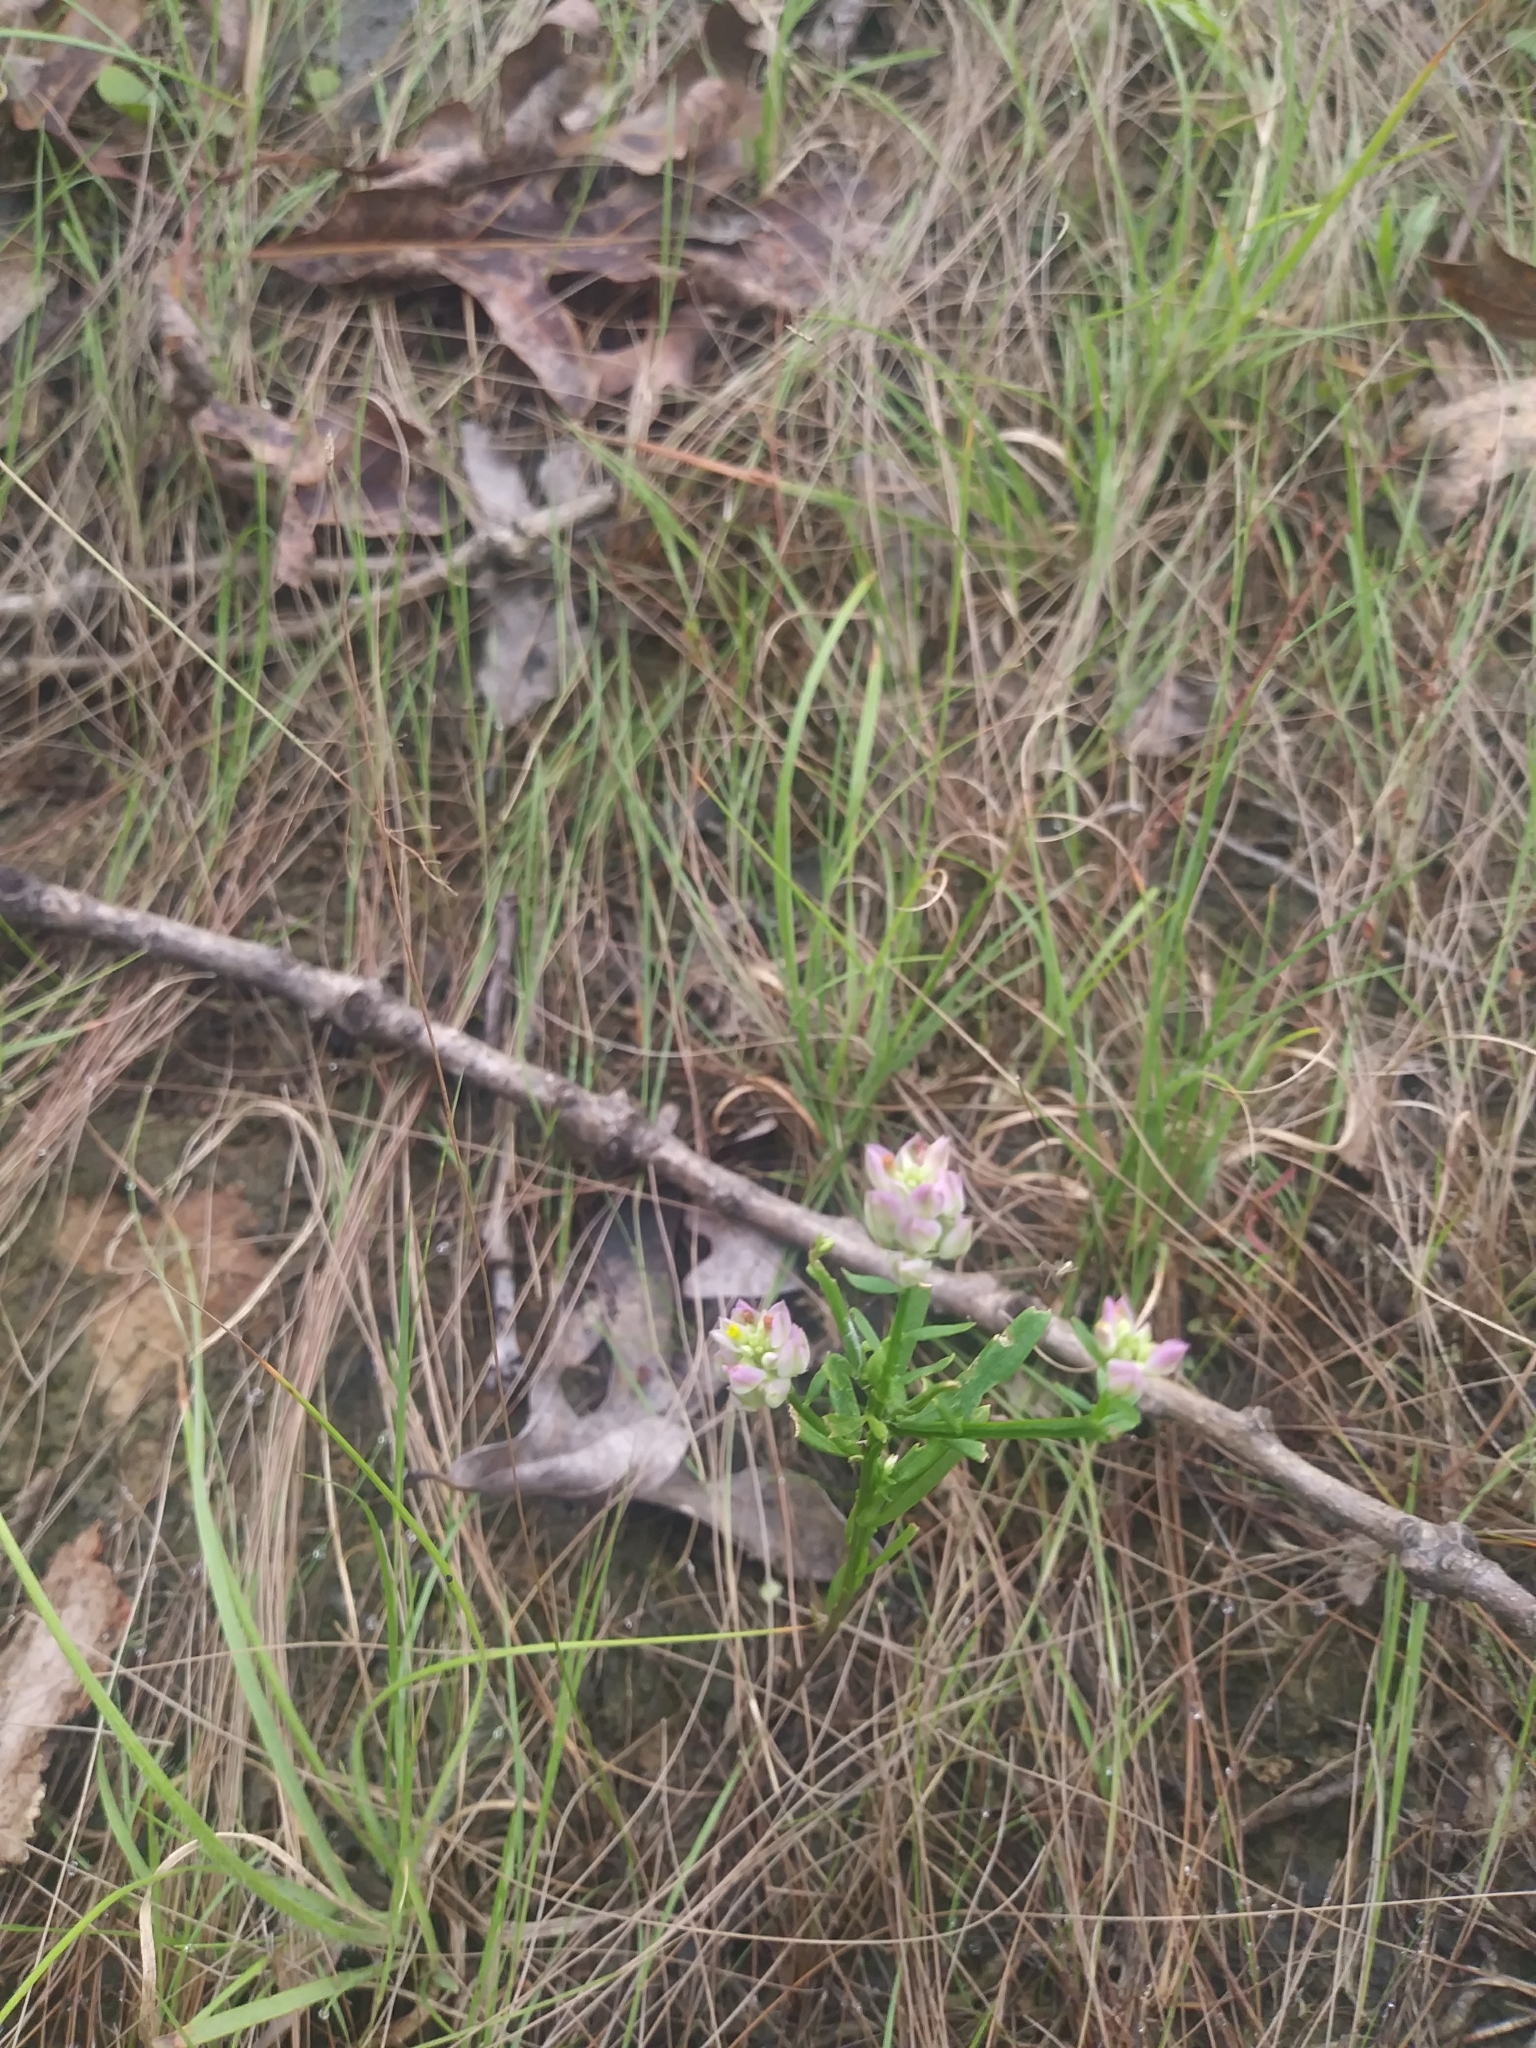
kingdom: Plantae
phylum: Tracheophyta
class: Magnoliopsida
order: Fabales
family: Polygalaceae
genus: Polygala
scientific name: Polygala sanguinea
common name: Blood milkwort
